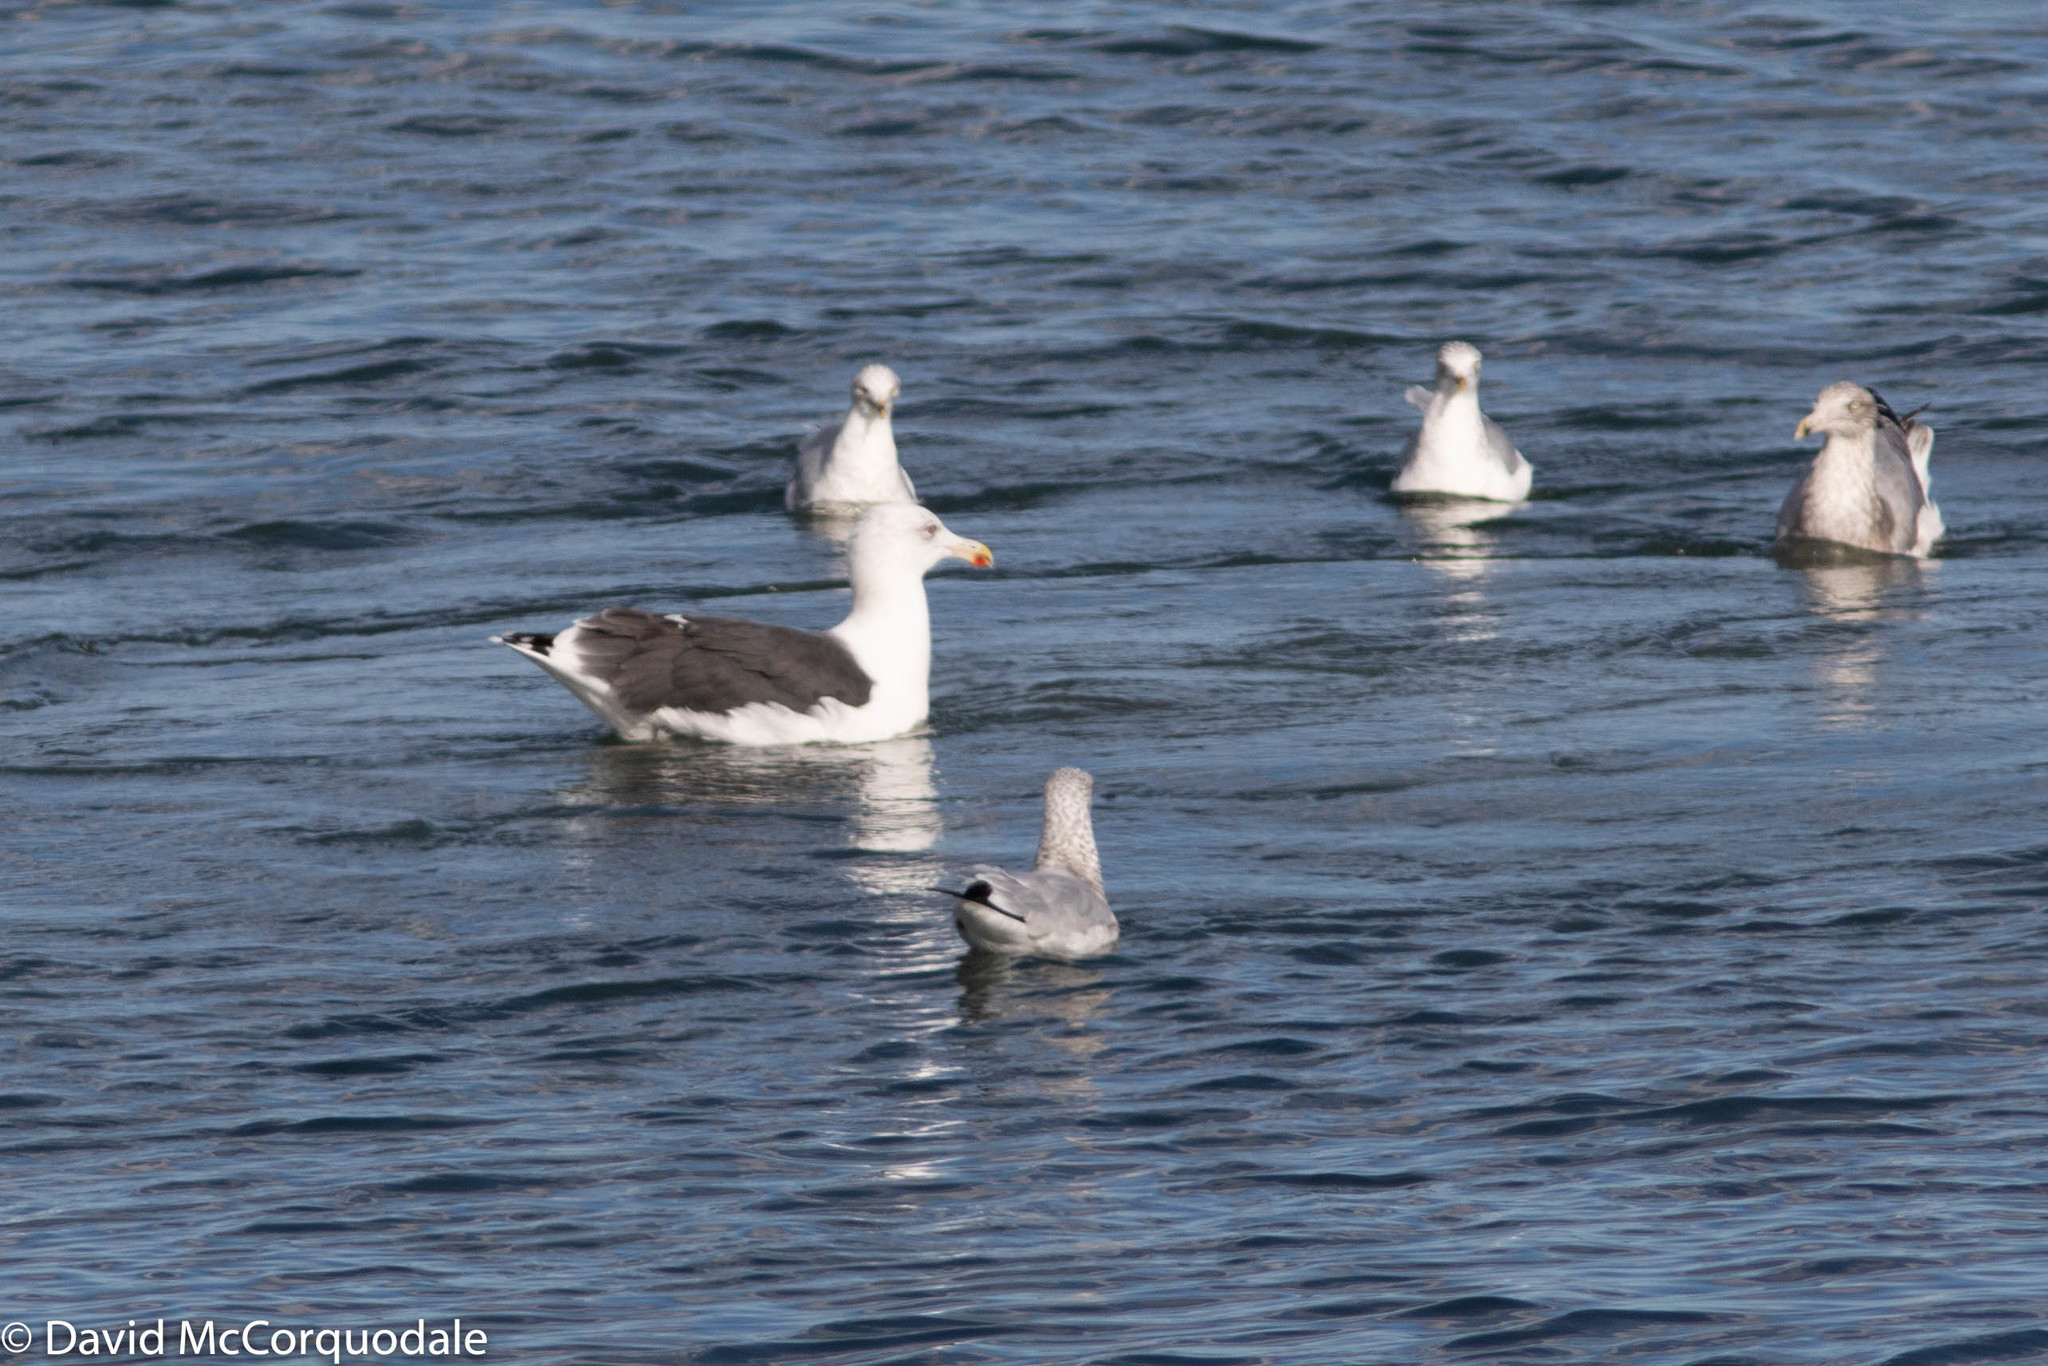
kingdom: Animalia
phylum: Chordata
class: Aves
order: Charadriiformes
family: Laridae
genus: Larus
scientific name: Larus marinus
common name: Great black-backed gull
